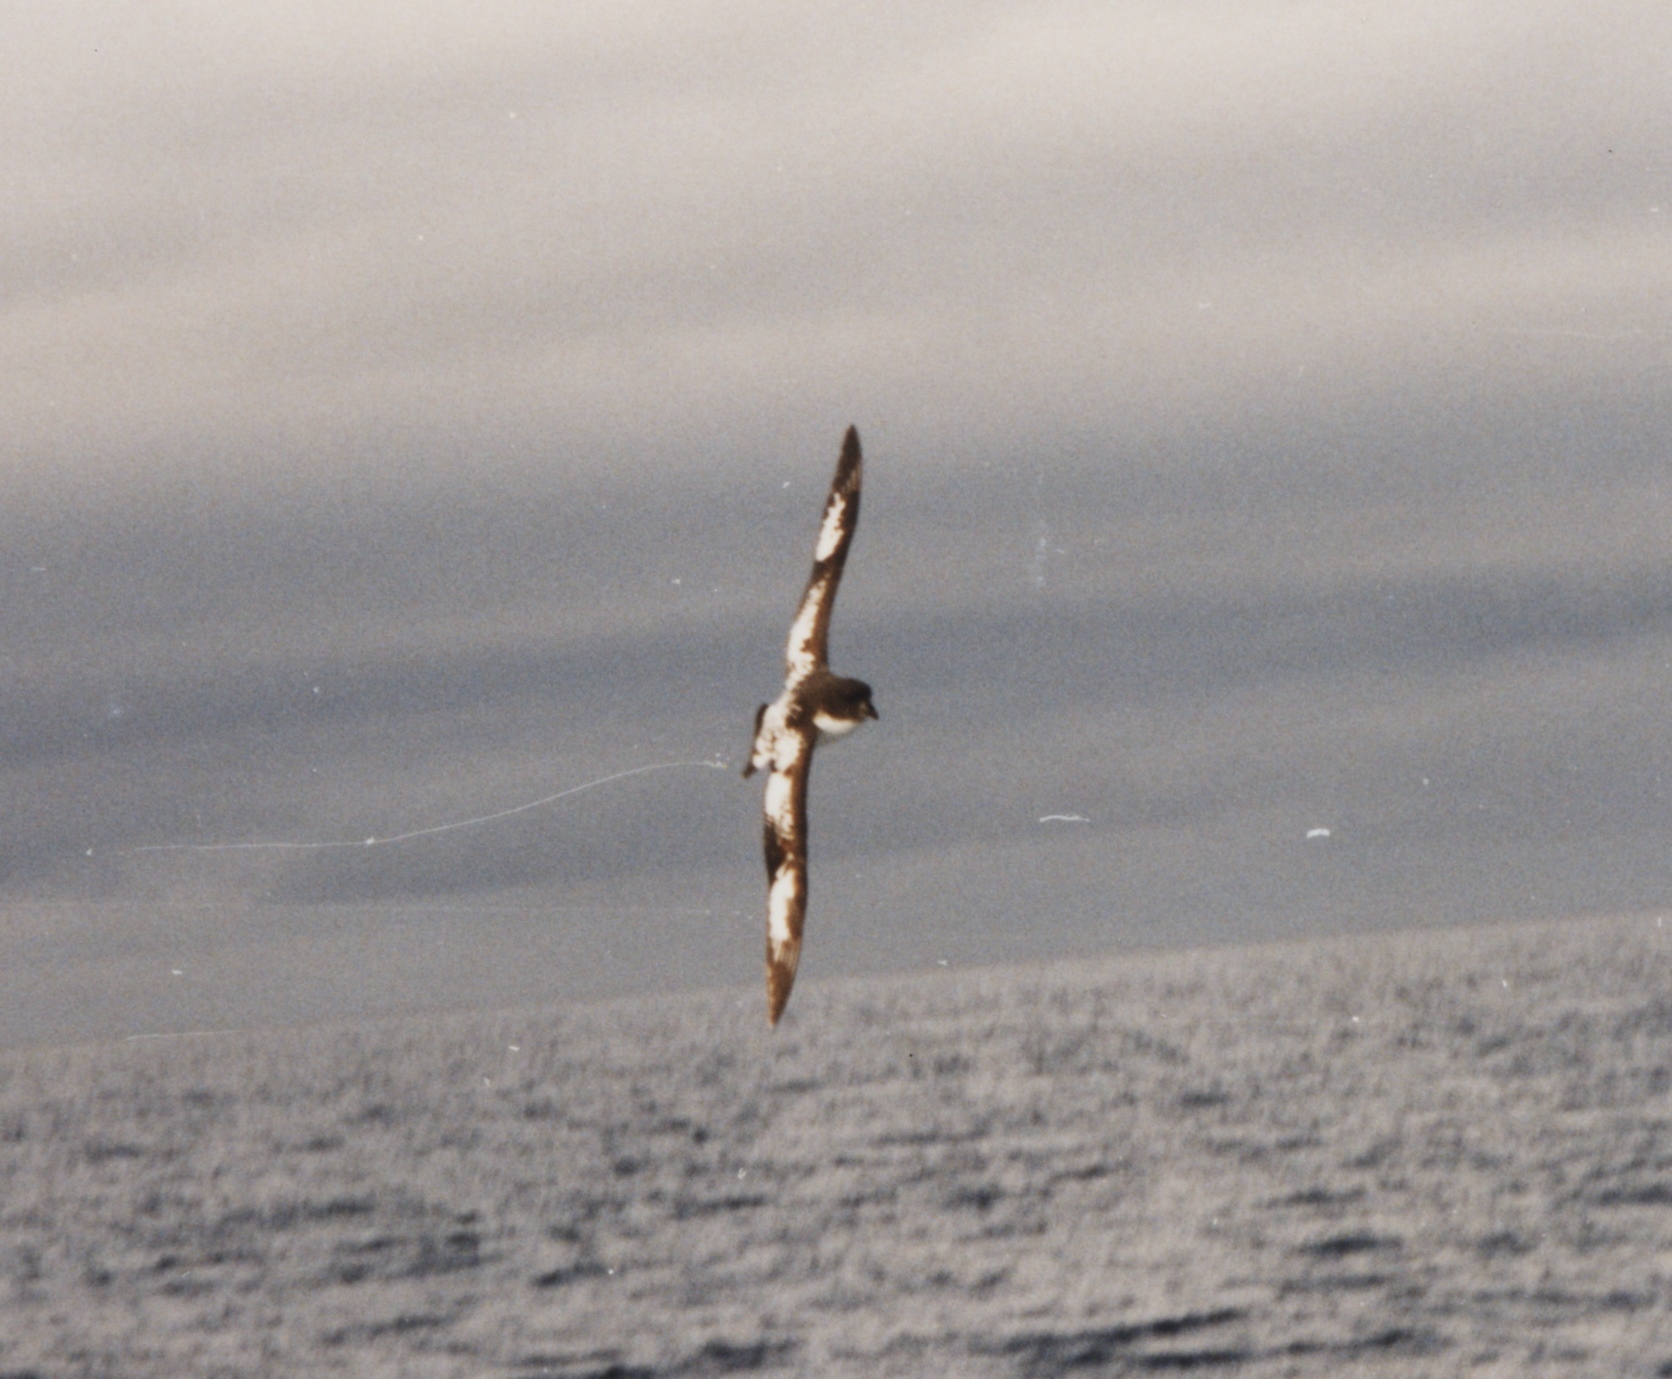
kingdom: Animalia
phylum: Chordata
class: Aves
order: Procellariiformes
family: Procellariidae
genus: Daption
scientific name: Daption capense
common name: Cape petrel
